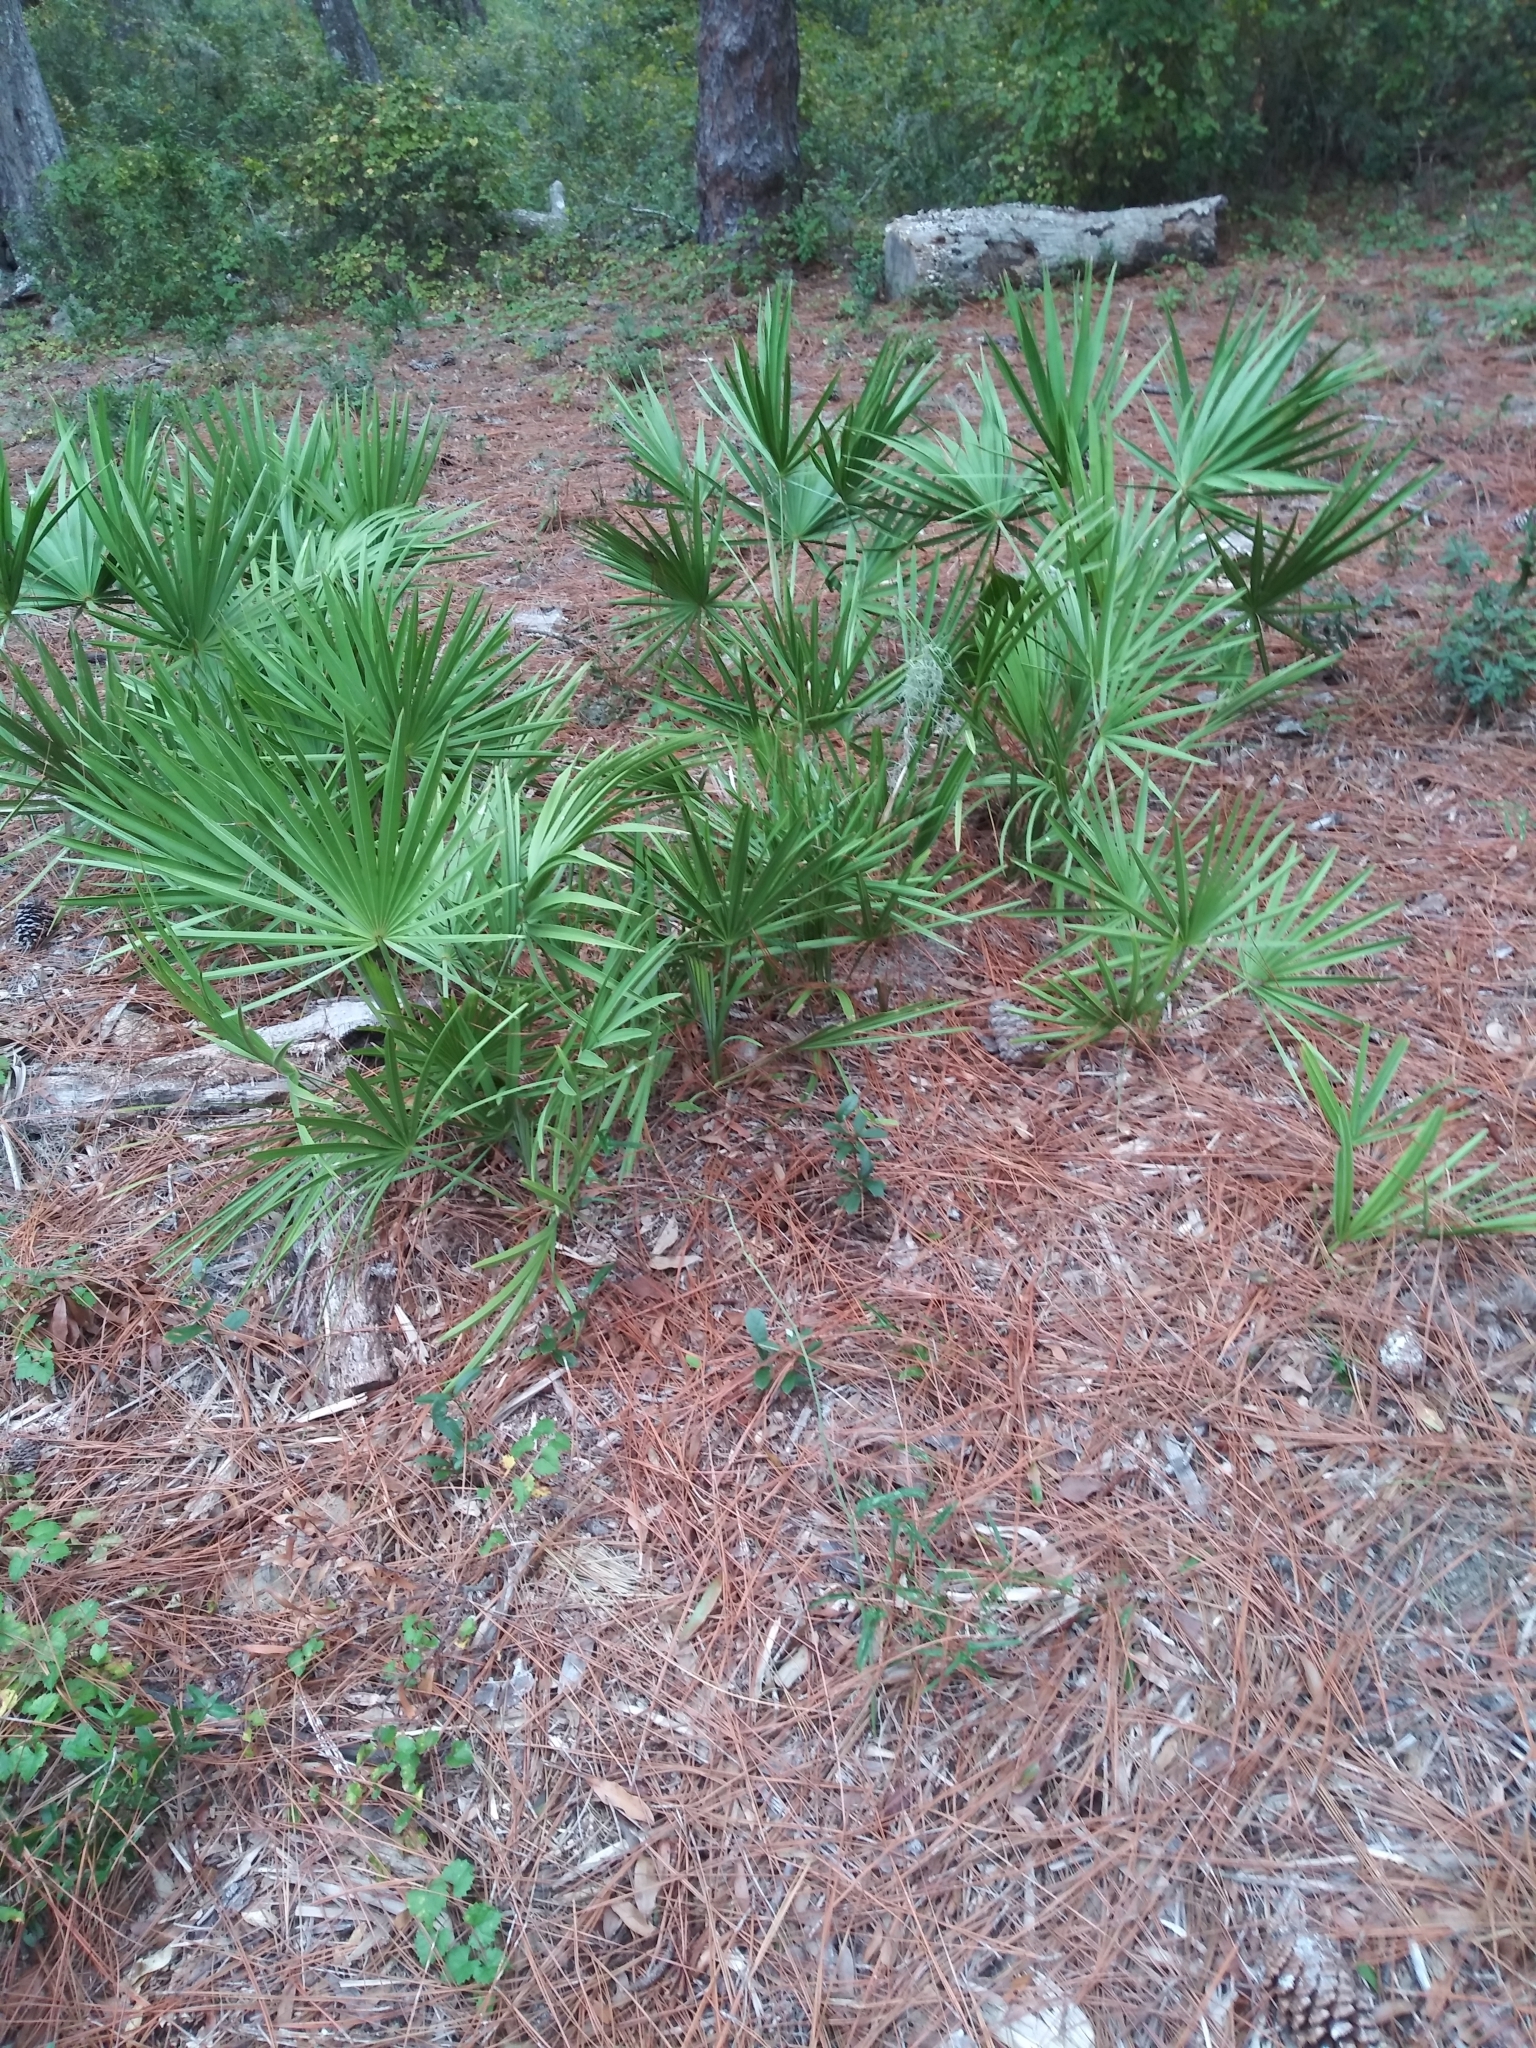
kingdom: Plantae
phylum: Tracheophyta
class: Liliopsida
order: Arecales
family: Arecaceae
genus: Serenoa
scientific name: Serenoa repens
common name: Saw-palmetto
